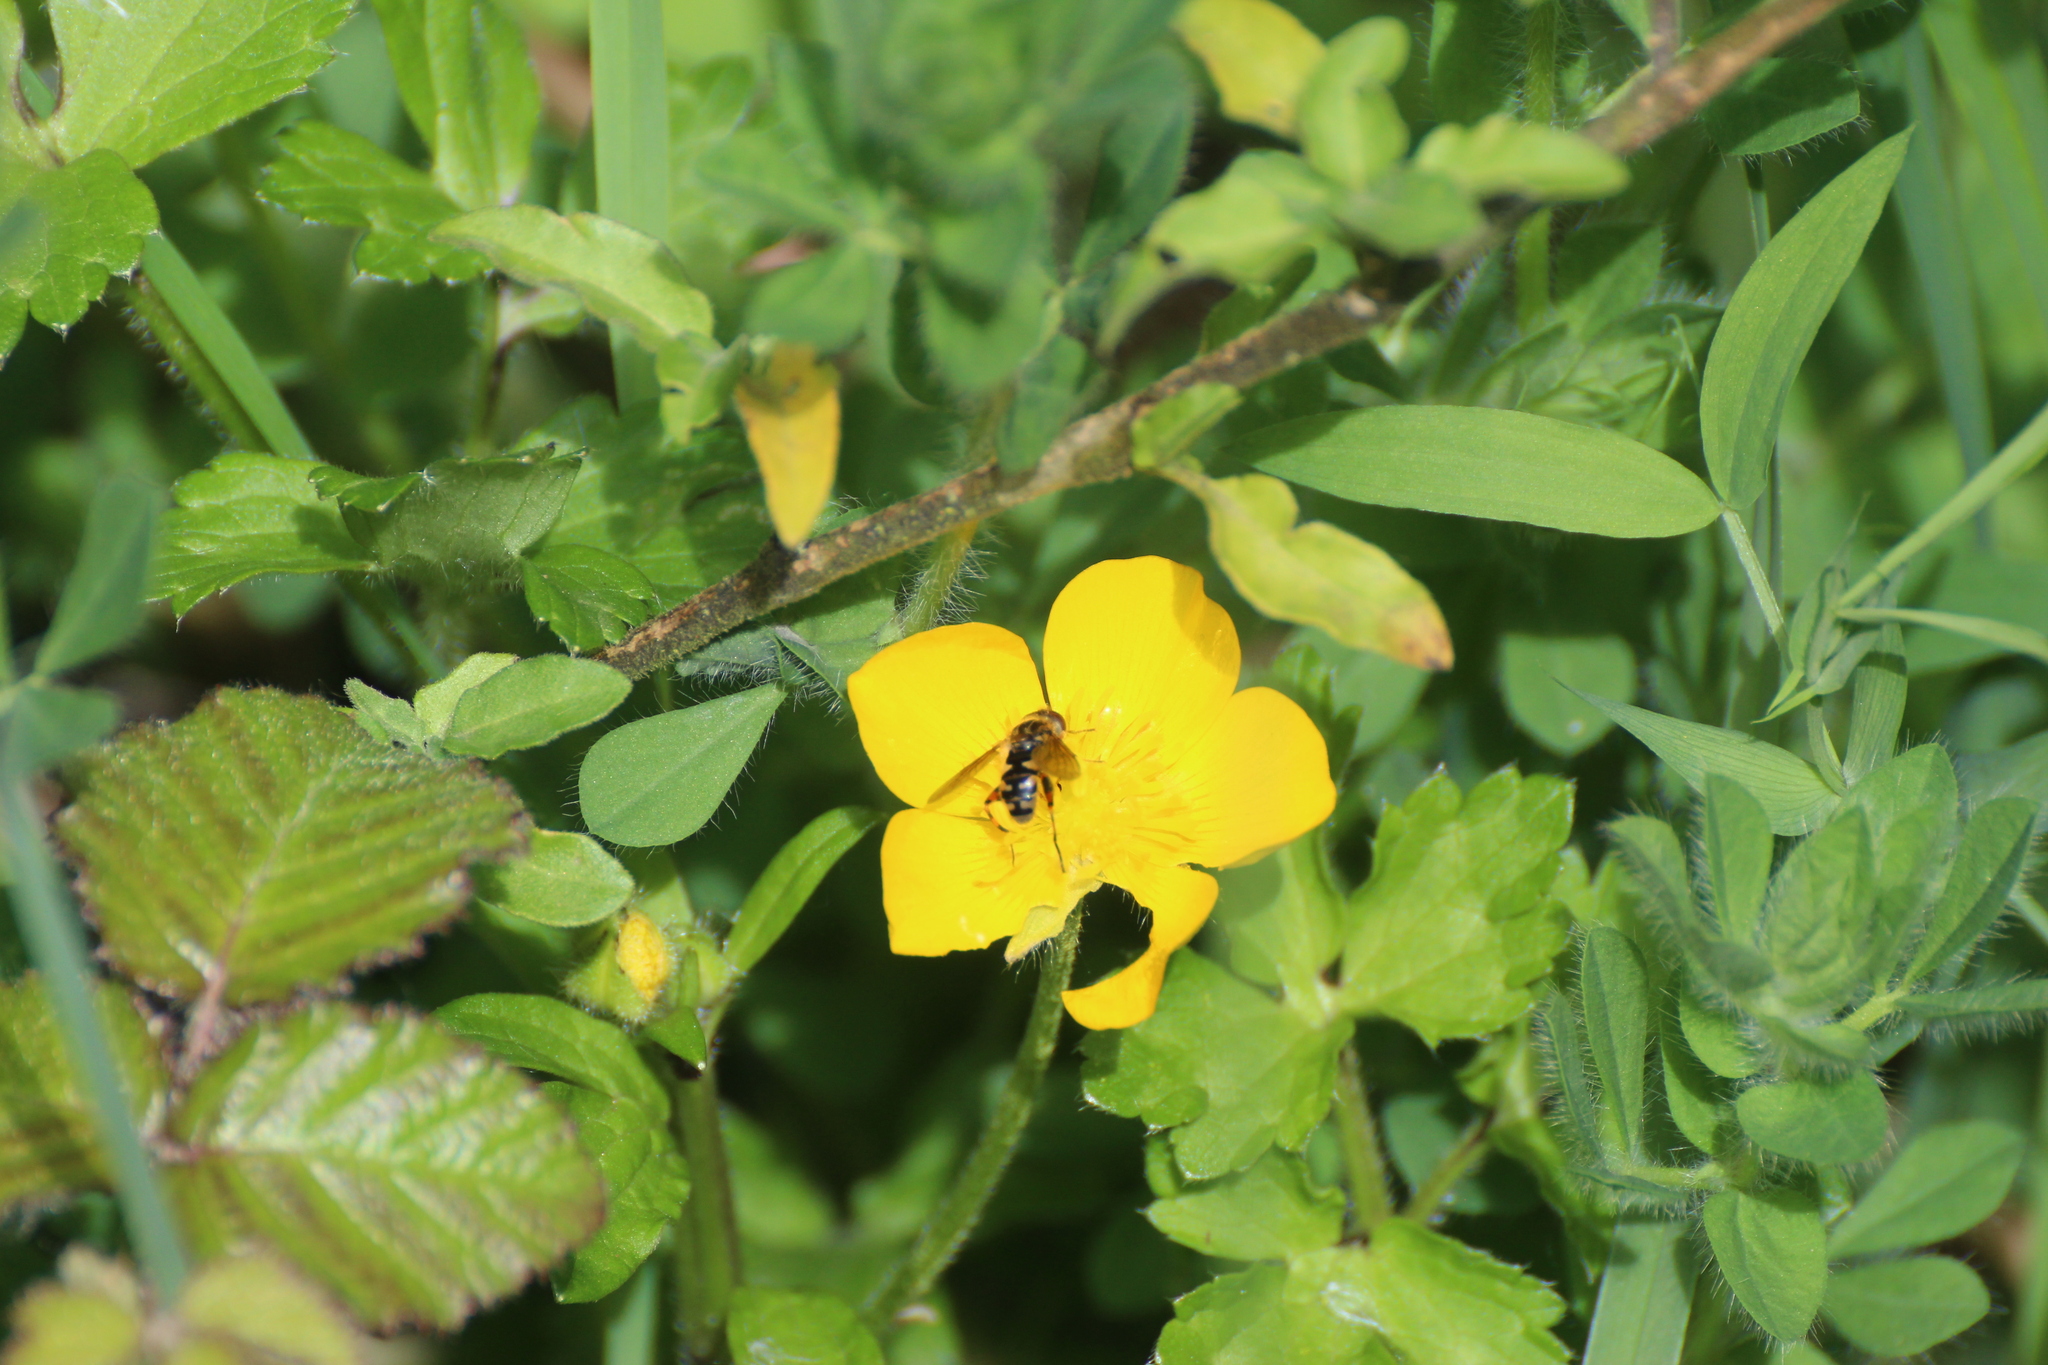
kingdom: Animalia
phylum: Arthropoda
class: Insecta
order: Diptera
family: Syrphidae
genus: Eurimyia
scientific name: Eurimyia lineatus
